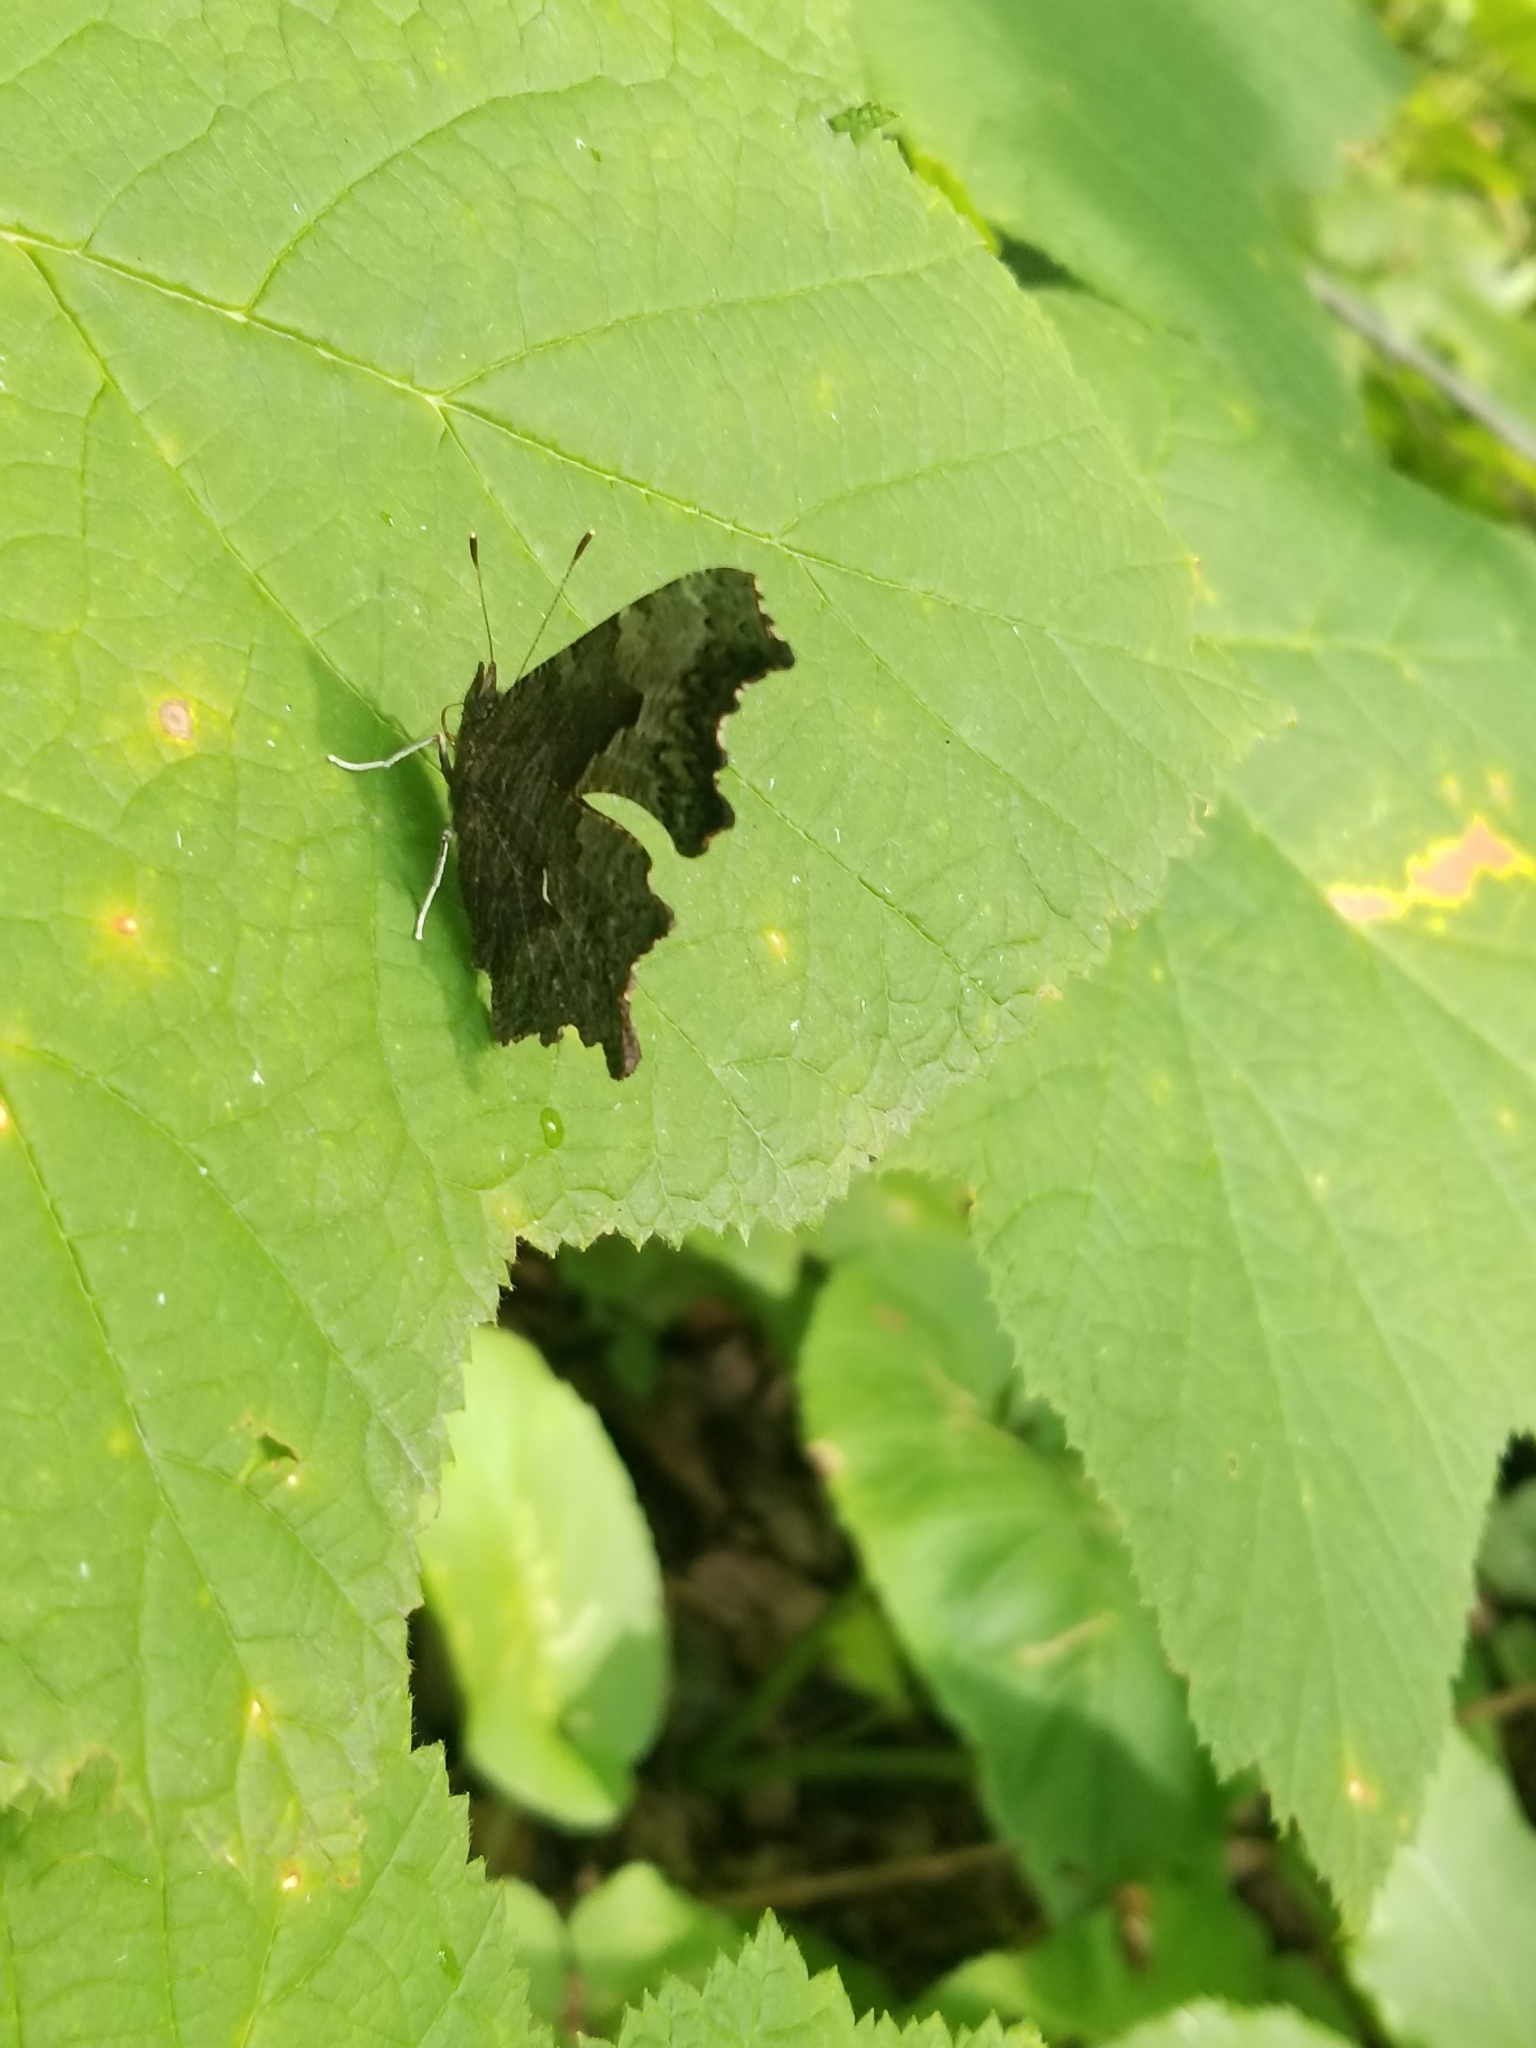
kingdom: Animalia
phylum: Arthropoda
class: Insecta
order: Lepidoptera
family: Nymphalidae
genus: Polygonia
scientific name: Polygonia progne
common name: Gray comma
